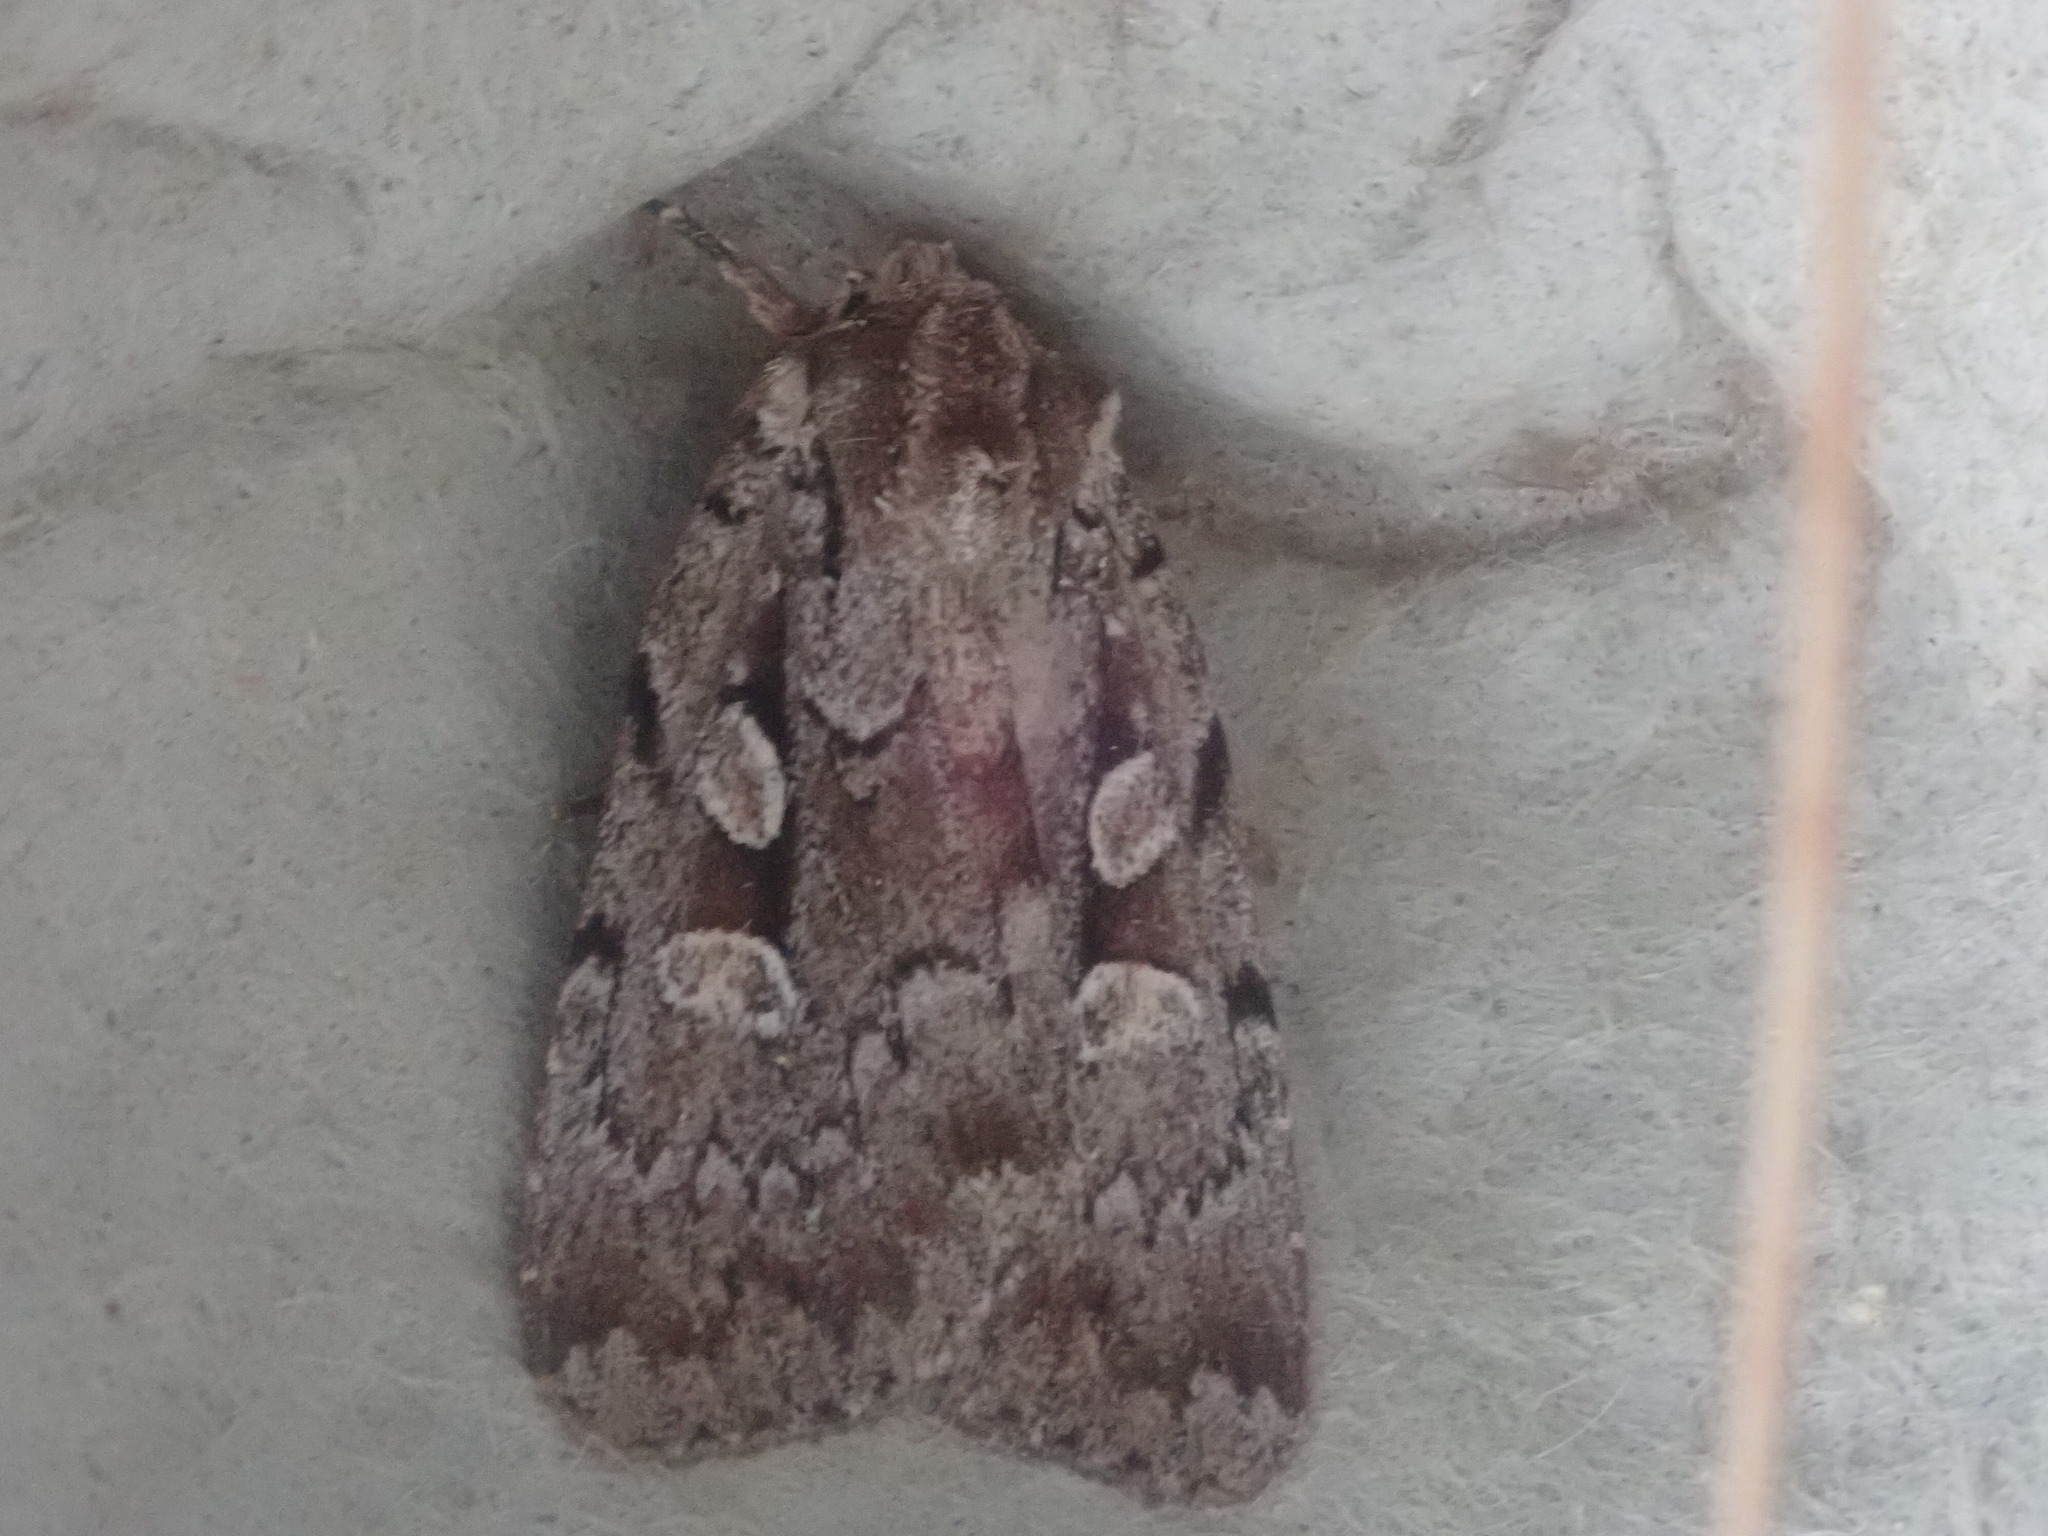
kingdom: Animalia
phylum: Arthropoda
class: Insecta
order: Lepidoptera
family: Noctuidae
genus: Xestia
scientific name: Xestia badicollis
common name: Northern variable dart
